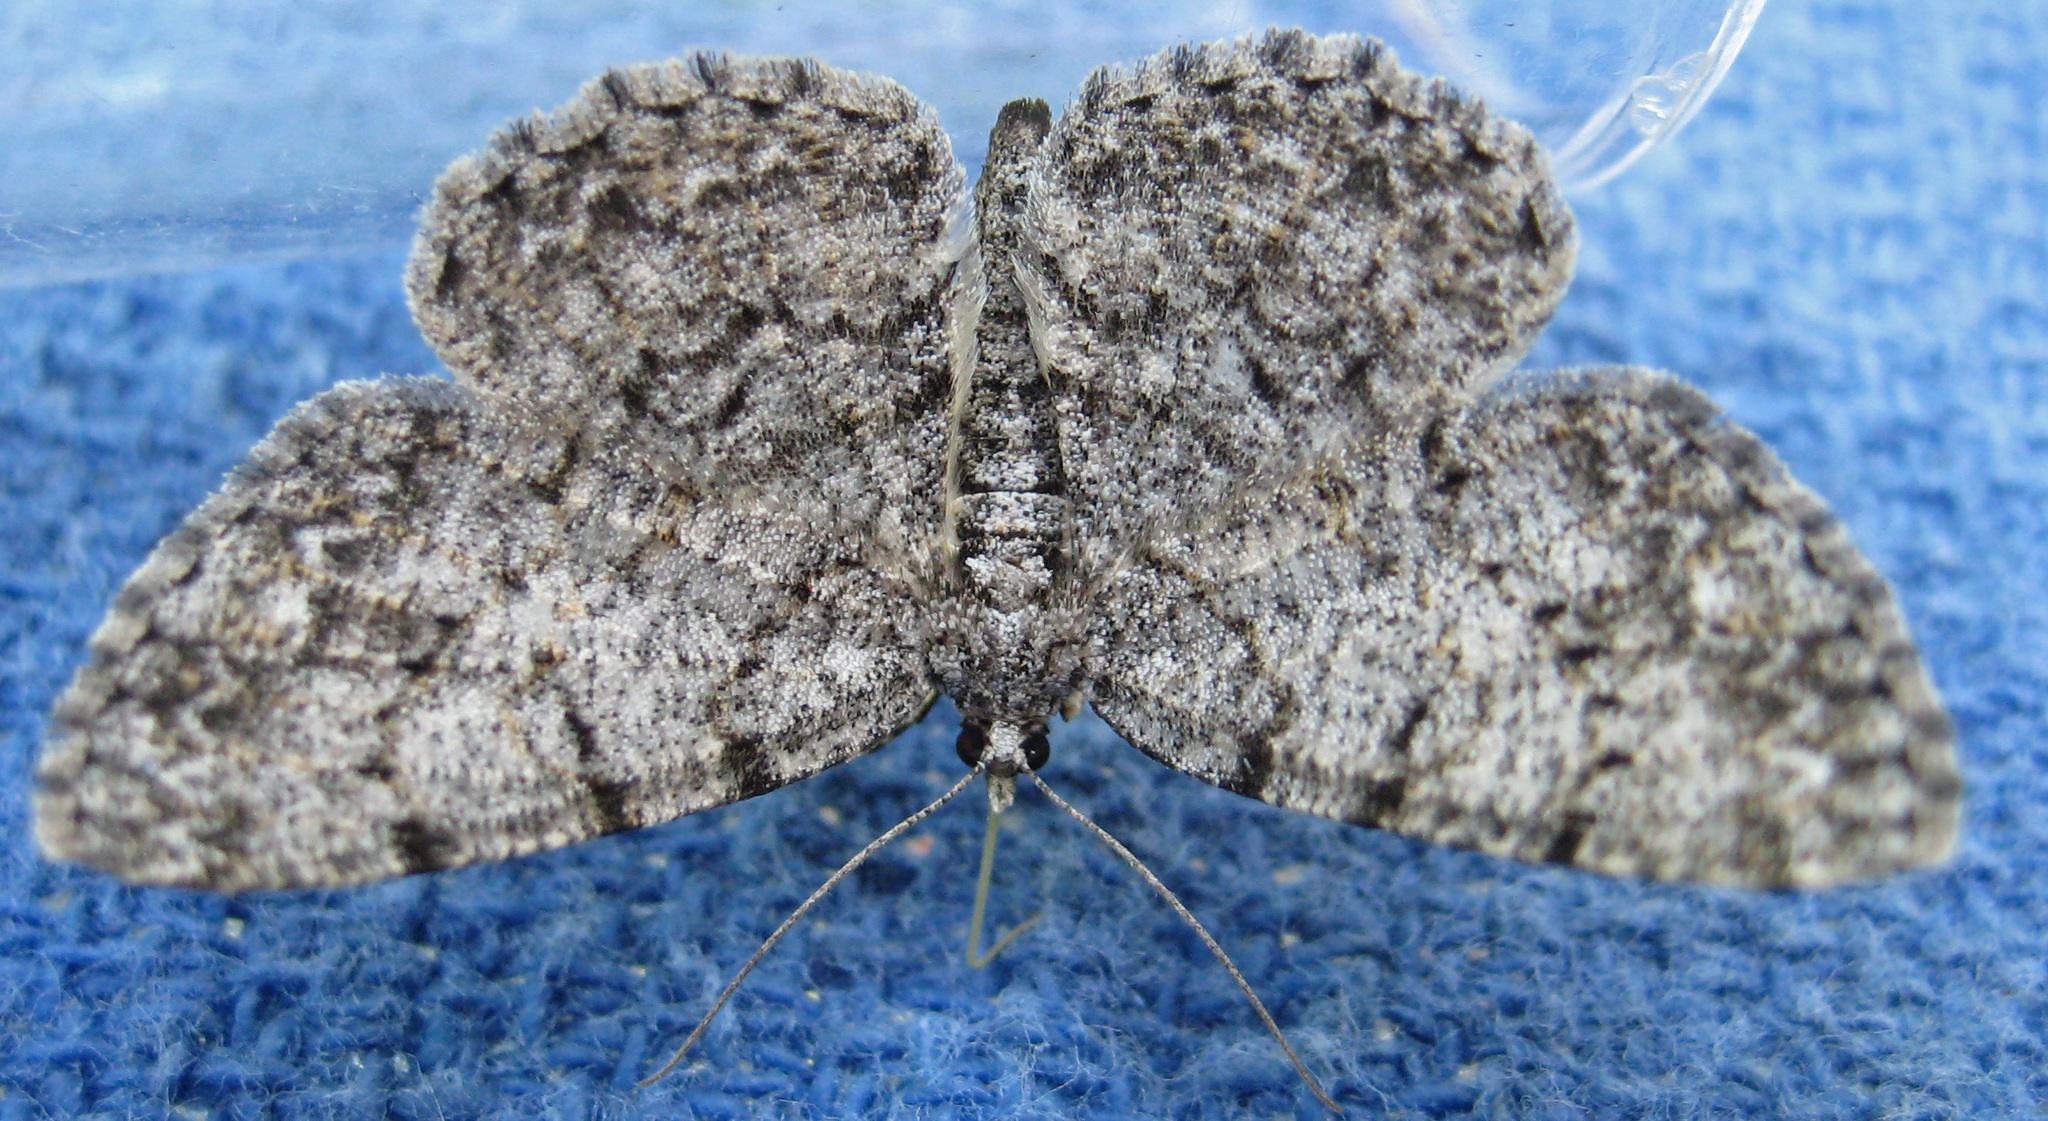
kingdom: Animalia
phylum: Arthropoda
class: Insecta
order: Lepidoptera
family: Geometridae
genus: Protoboarmia
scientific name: Protoboarmia porcelaria
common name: Porcelain gray
